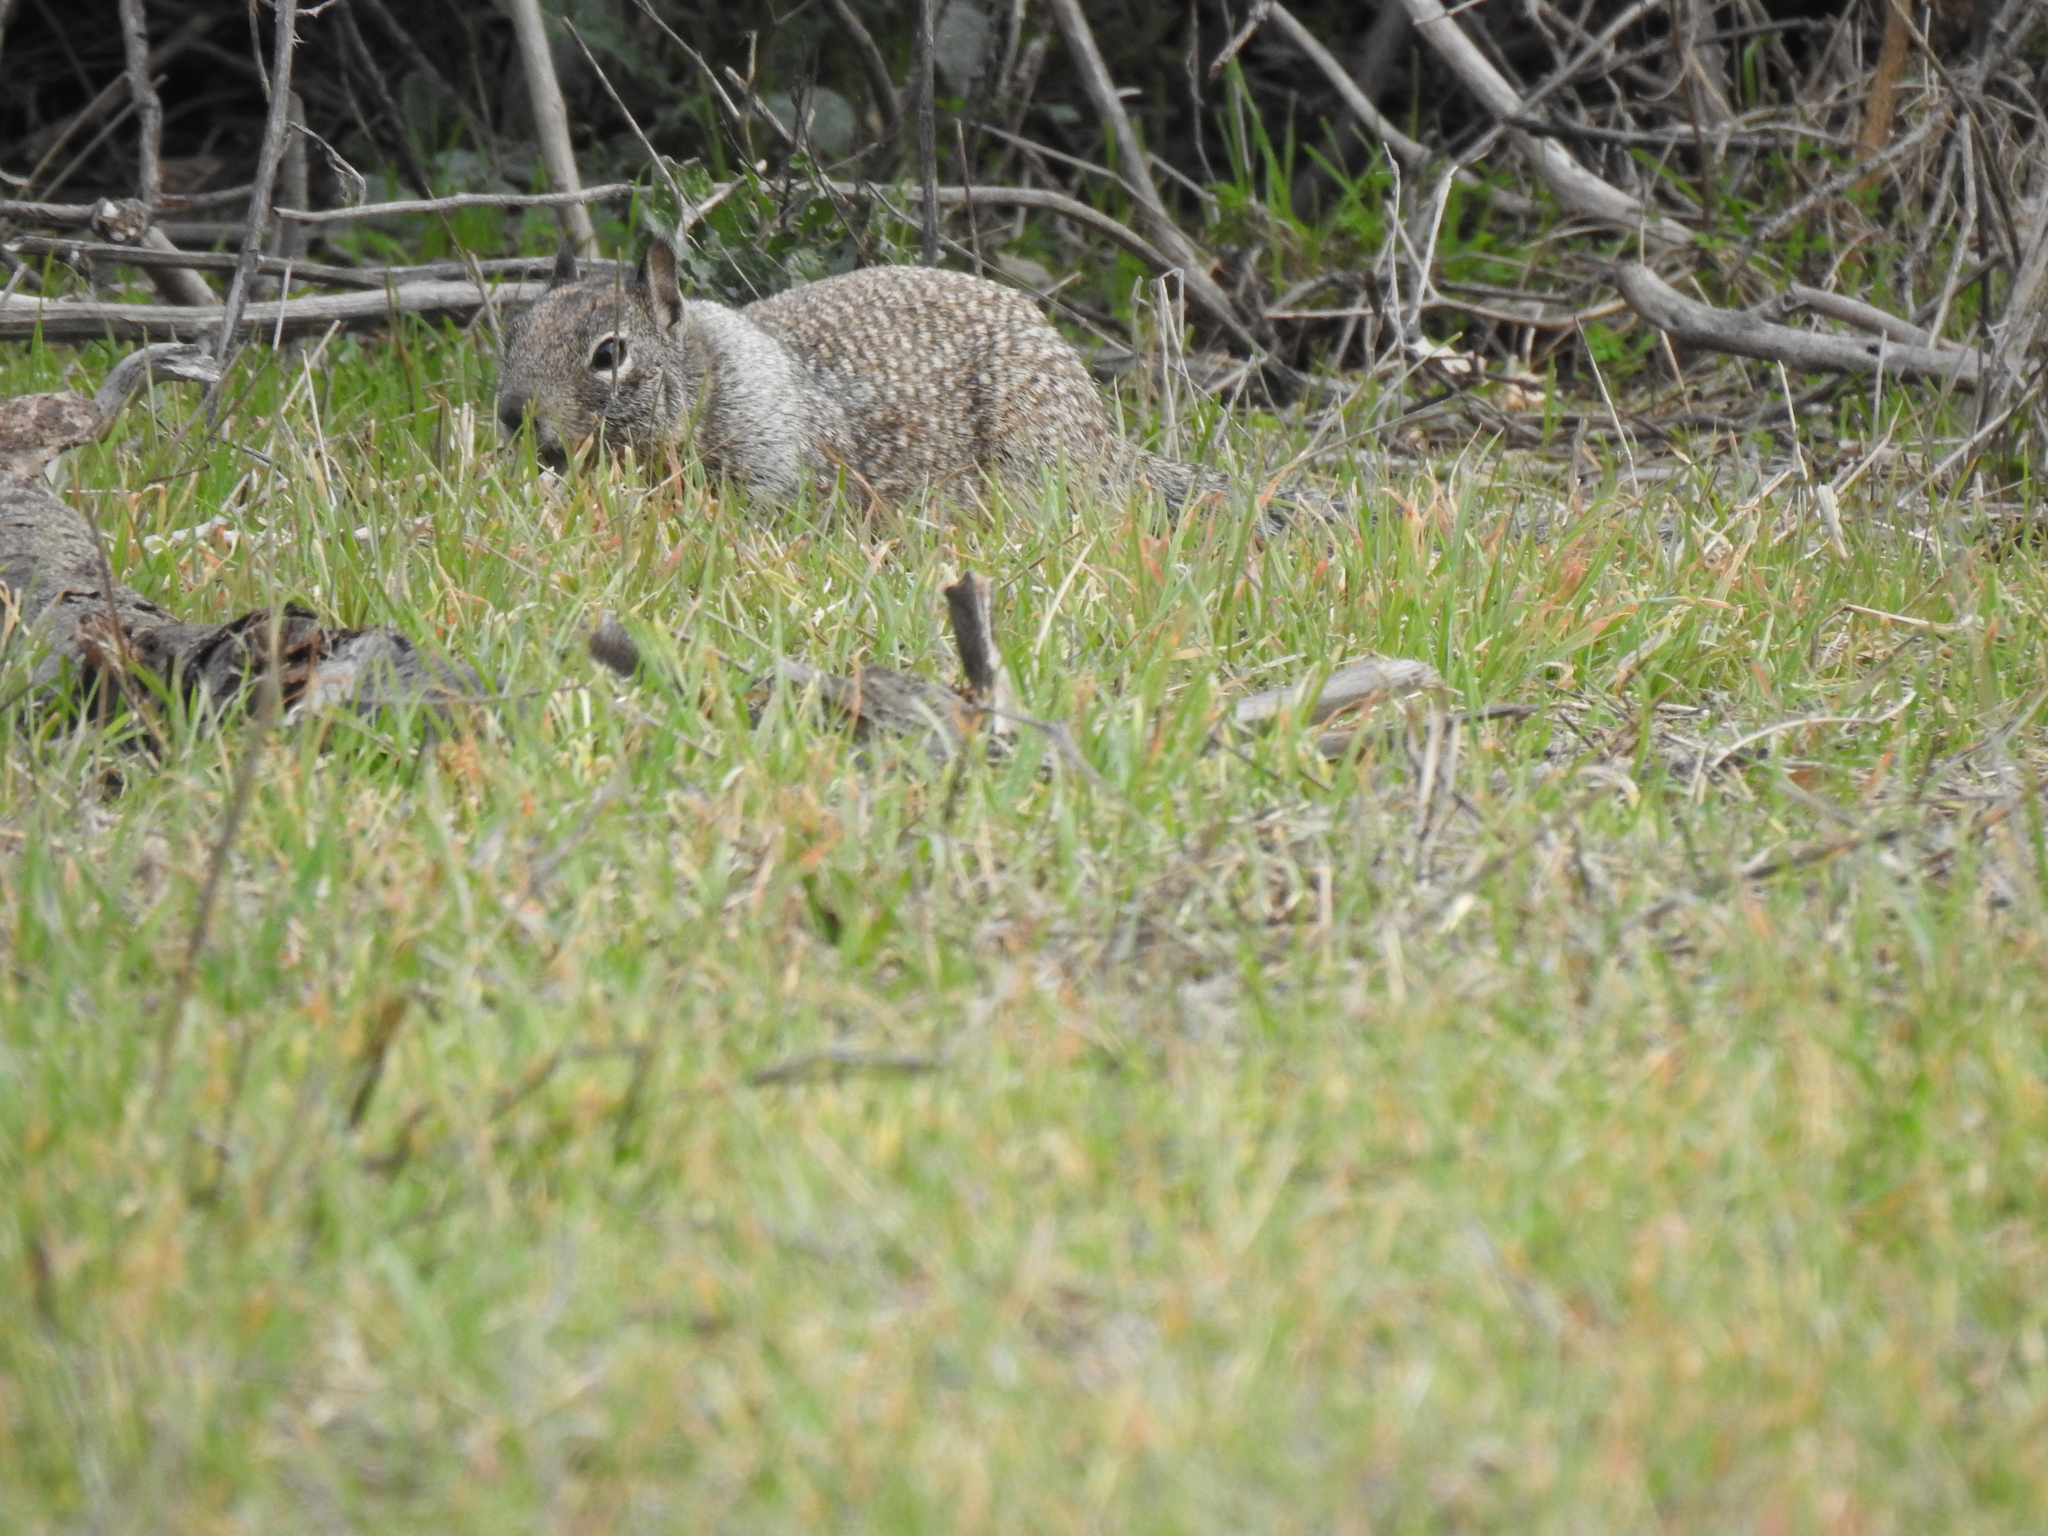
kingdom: Animalia
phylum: Chordata
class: Mammalia
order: Rodentia
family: Sciuridae
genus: Otospermophilus
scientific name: Otospermophilus beecheyi
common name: California ground squirrel
